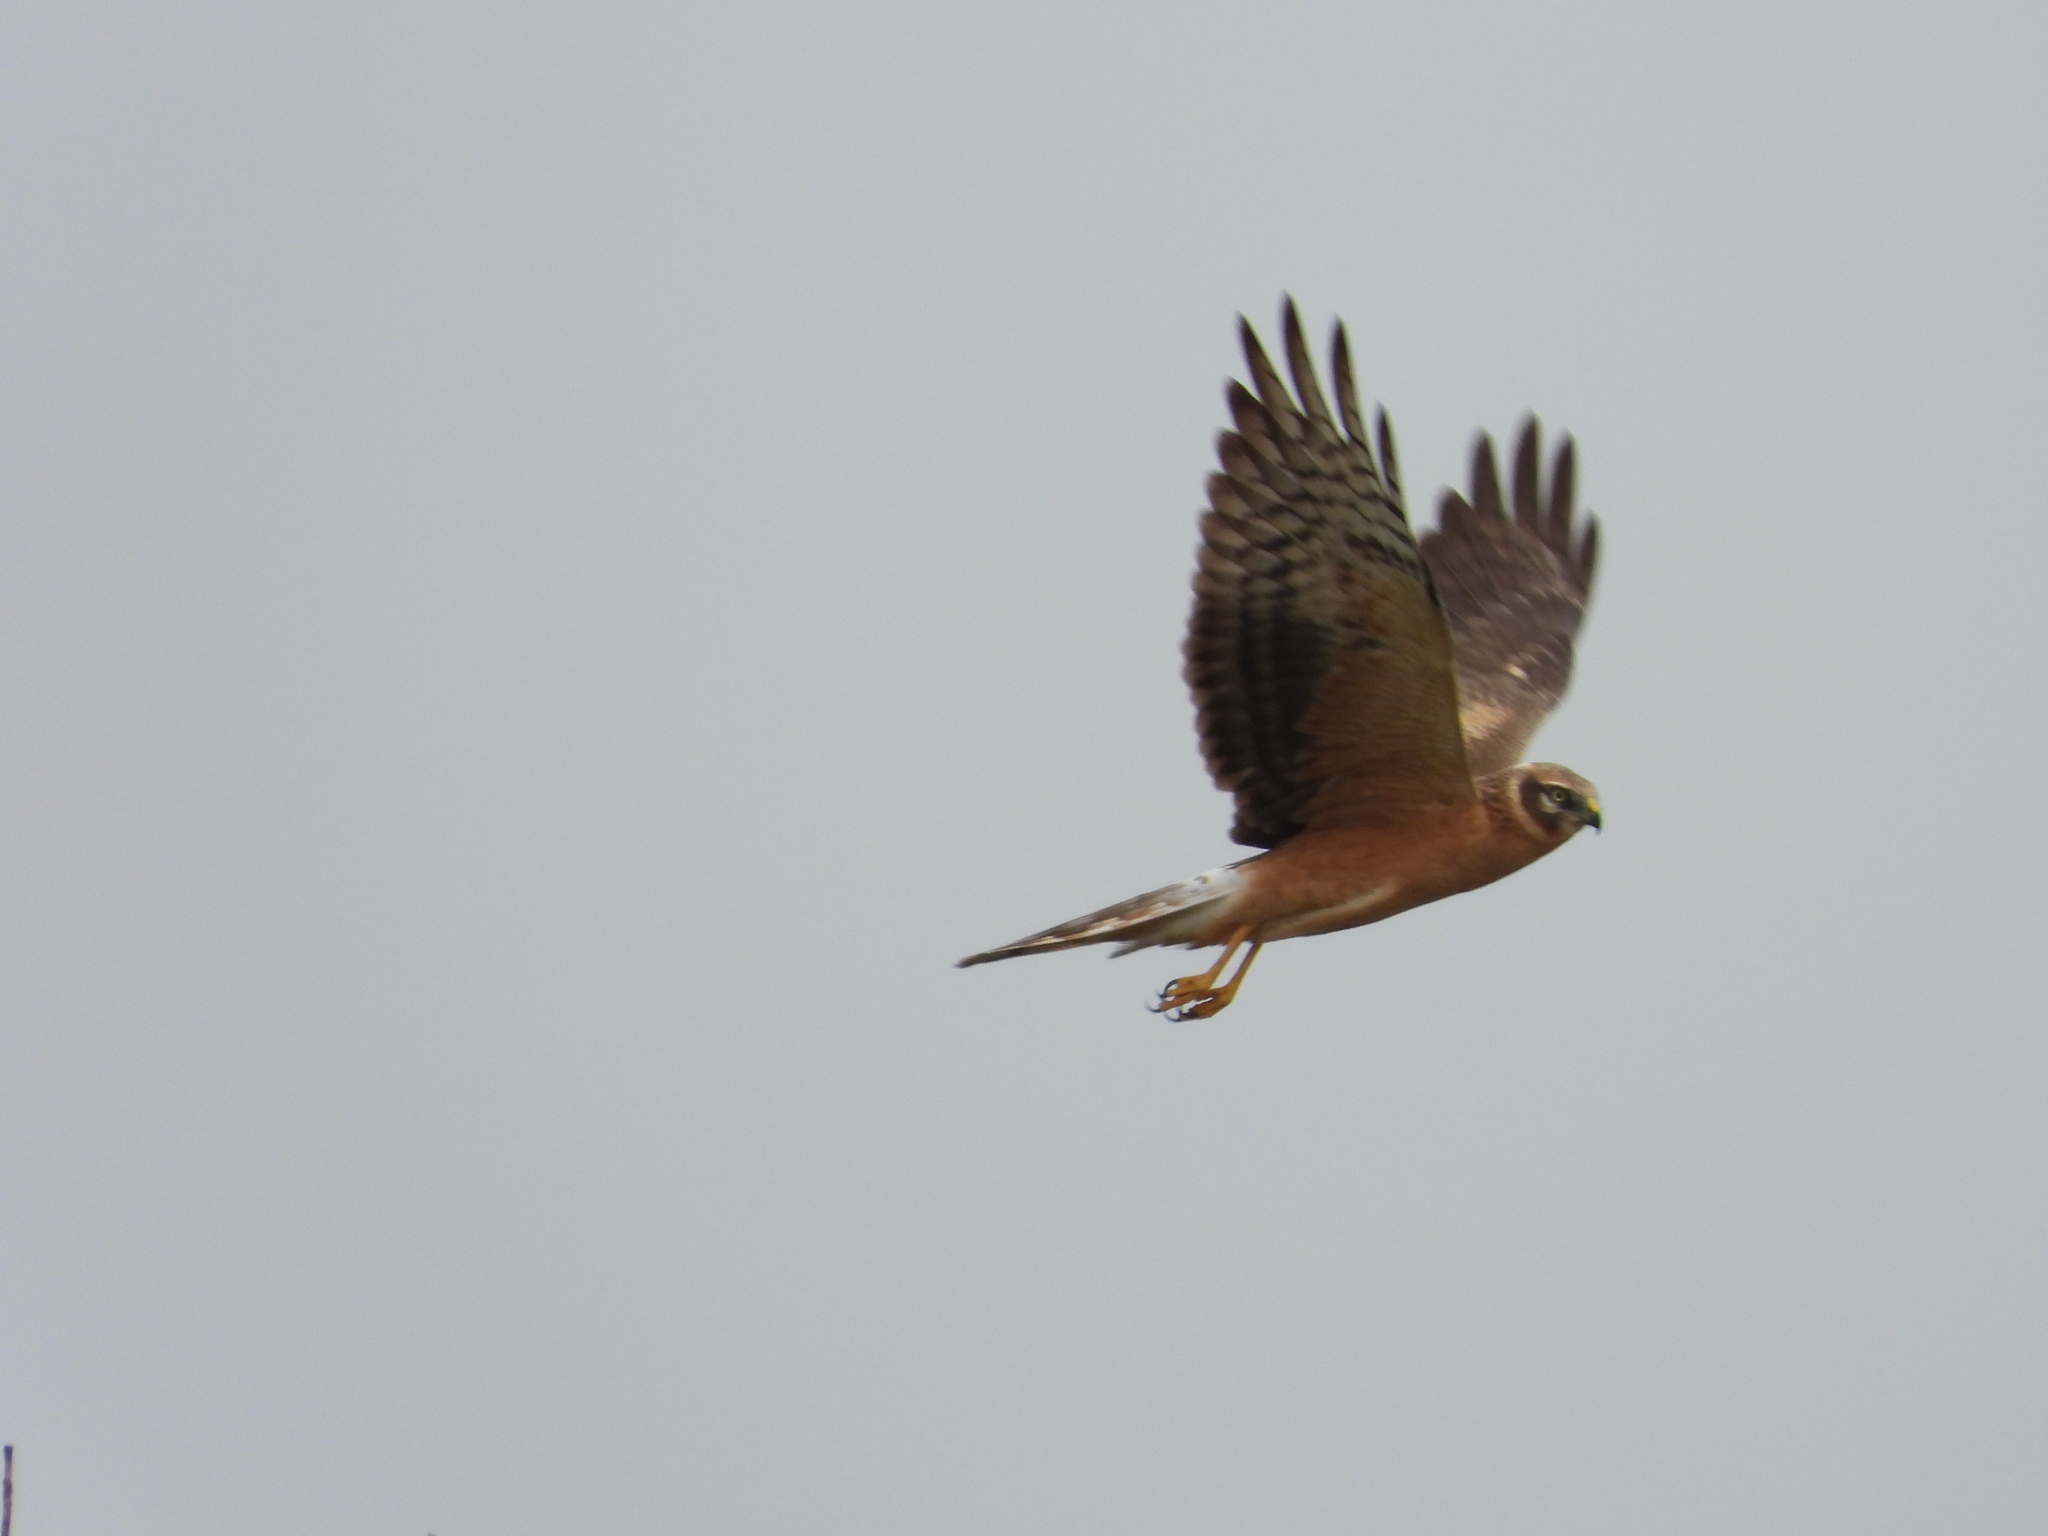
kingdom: Animalia
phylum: Chordata
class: Aves
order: Accipitriformes
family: Accipitridae
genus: Circus
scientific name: Circus macrourus
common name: Pallid harrier
